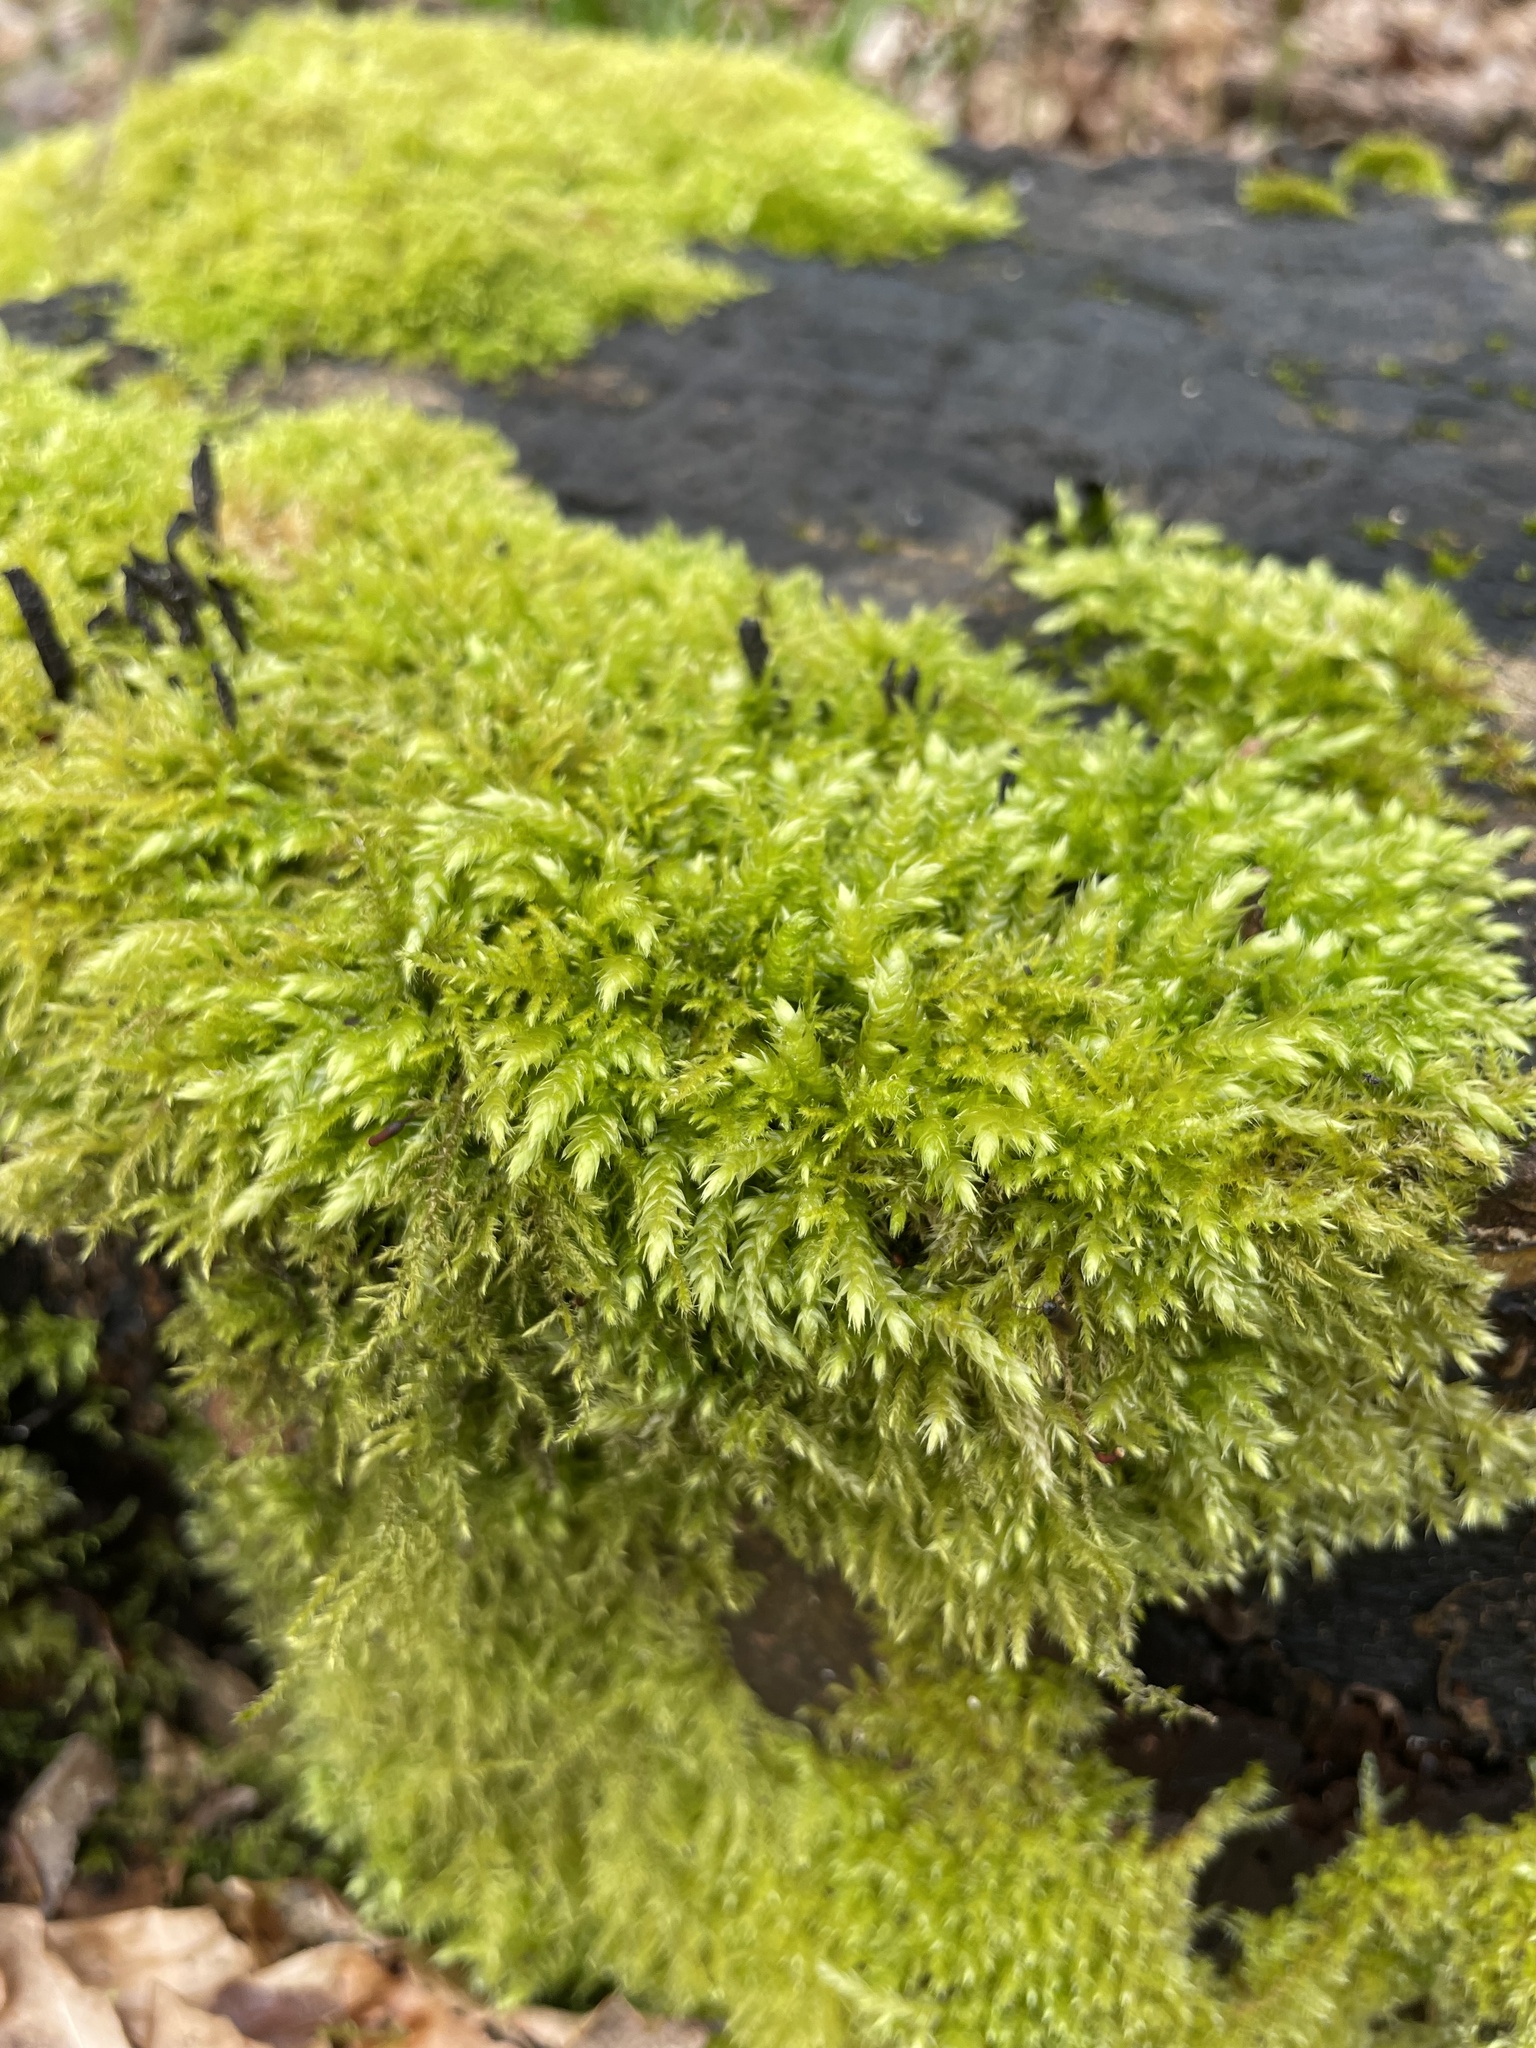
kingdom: Plantae
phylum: Bryophyta
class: Bryopsida
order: Hypnales
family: Hypnaceae
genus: Hypnum
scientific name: Hypnum cupressiforme
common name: Cypress-leaved plait-moss
